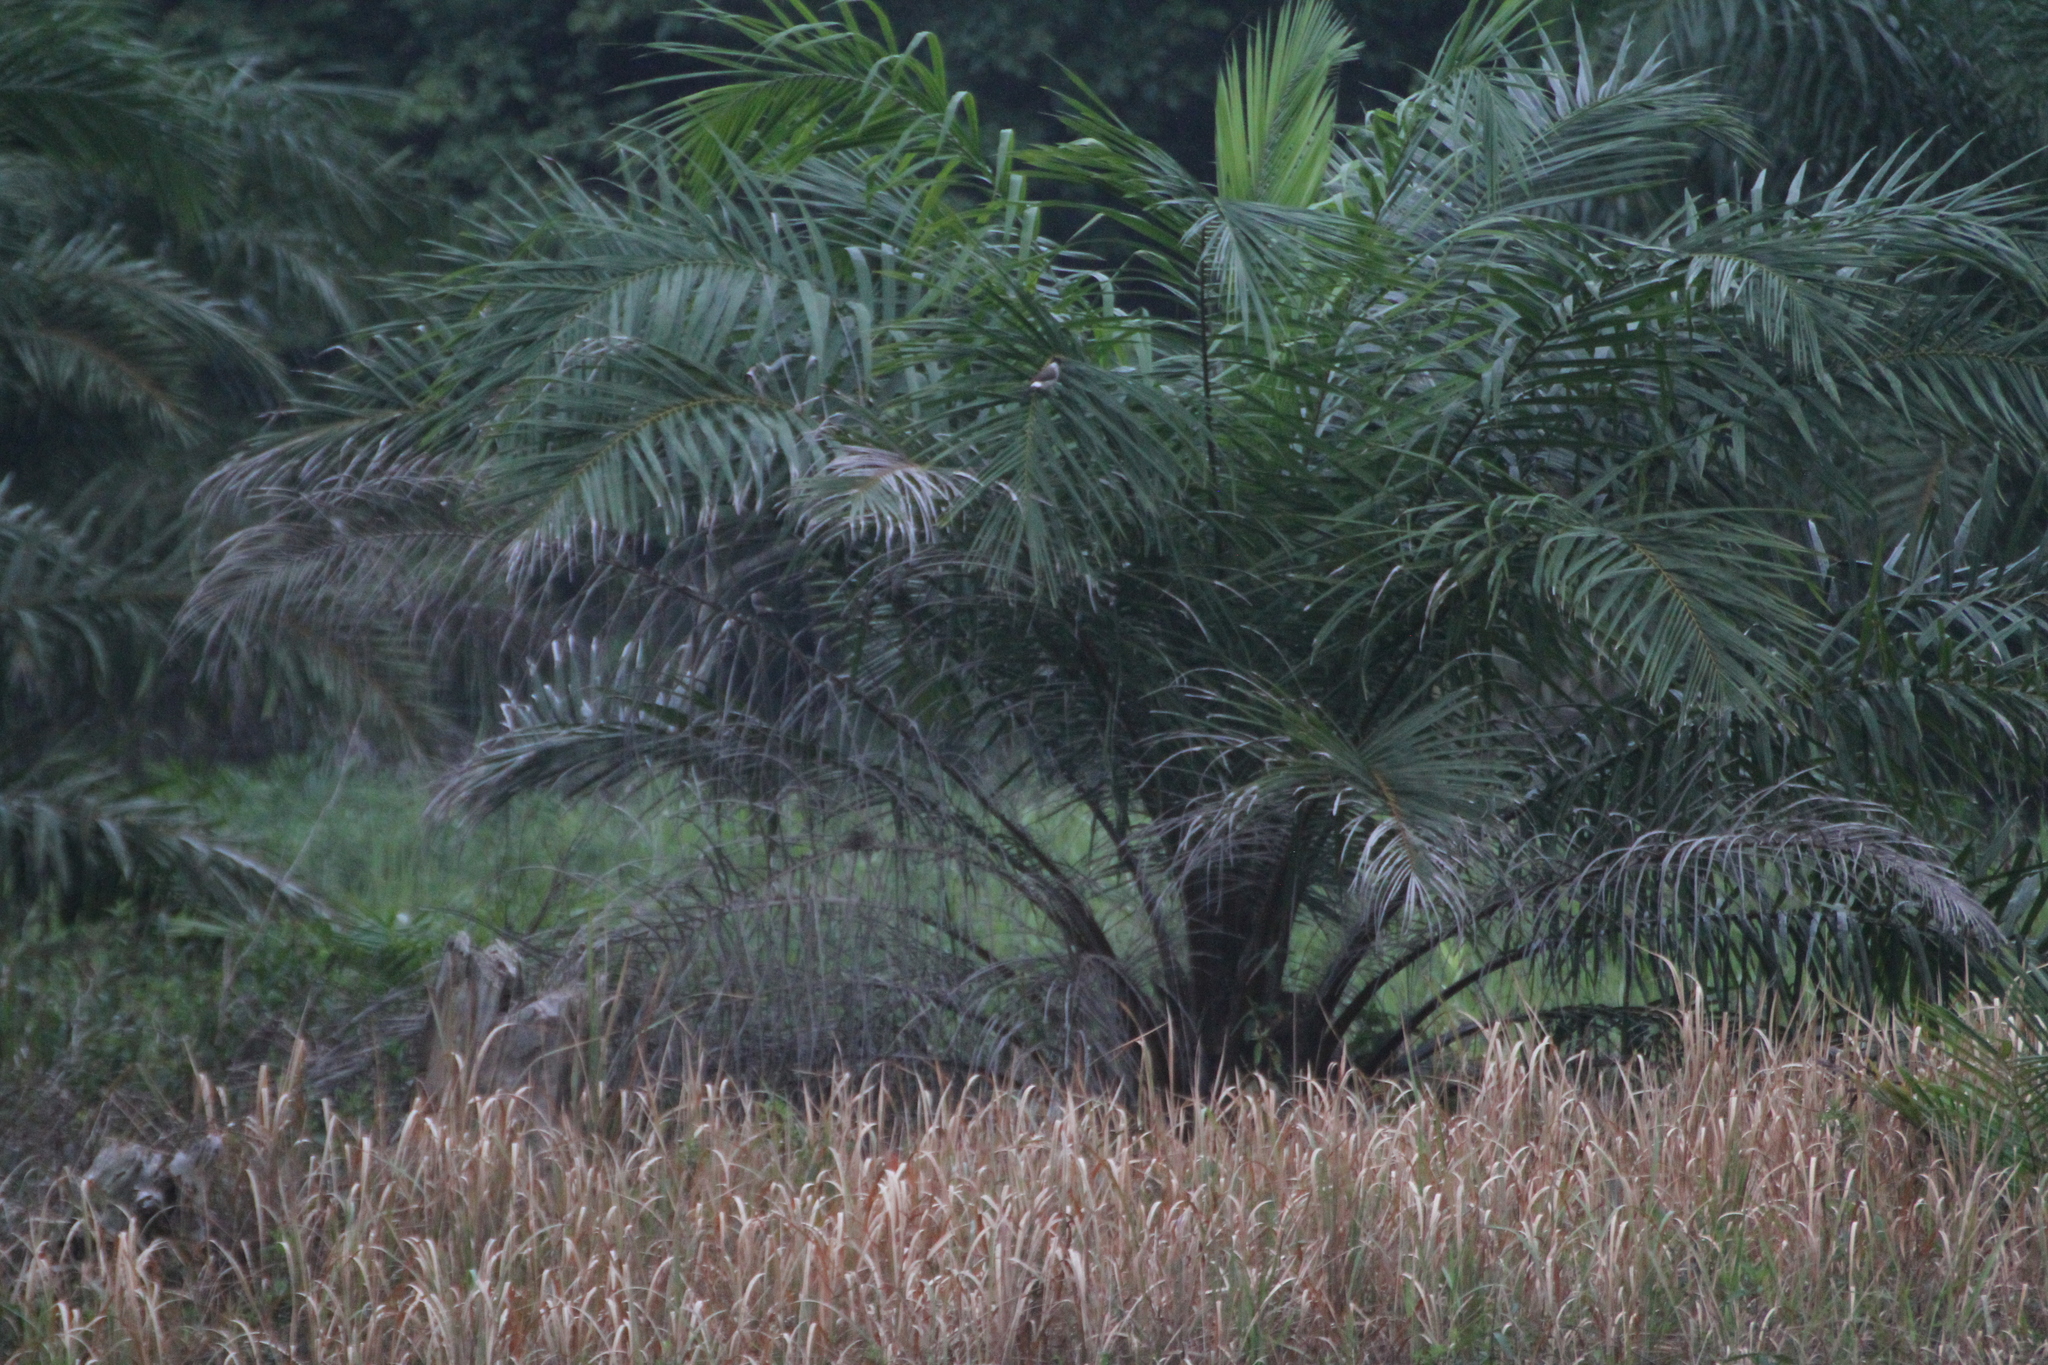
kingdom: Animalia
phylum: Chordata
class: Aves
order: Passeriformes
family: Pycnonotidae
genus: Pycnonotus
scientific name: Pycnonotus aurigaster
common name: Sooty-headed bulbul
